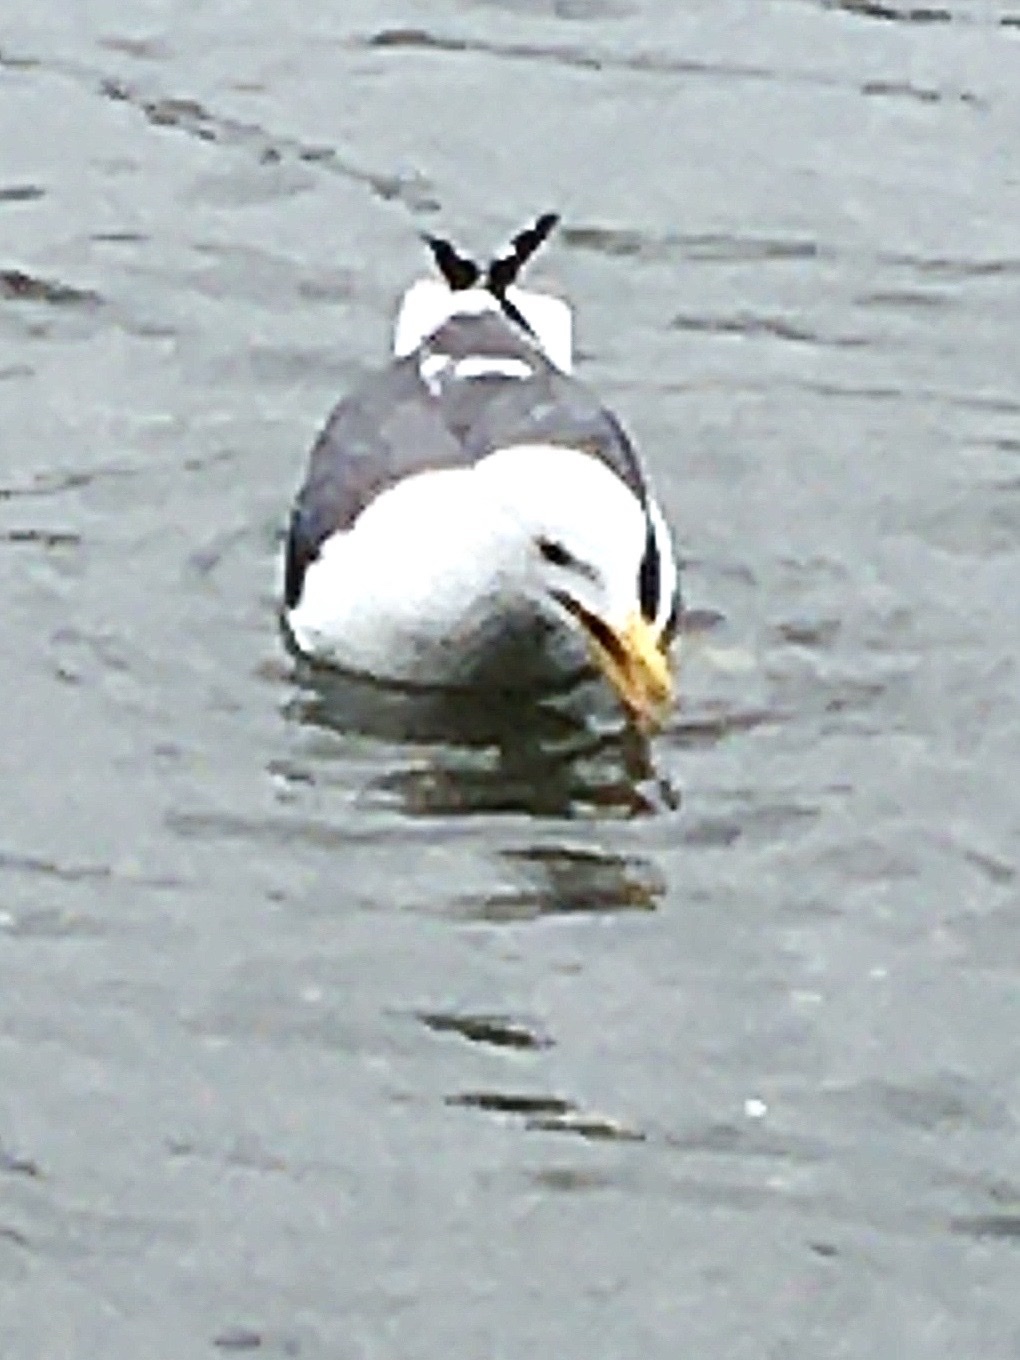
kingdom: Animalia
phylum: Chordata
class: Aves
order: Charadriiformes
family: Laridae
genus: Larus
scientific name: Larus fuscus
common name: Lesser black-backed gull
